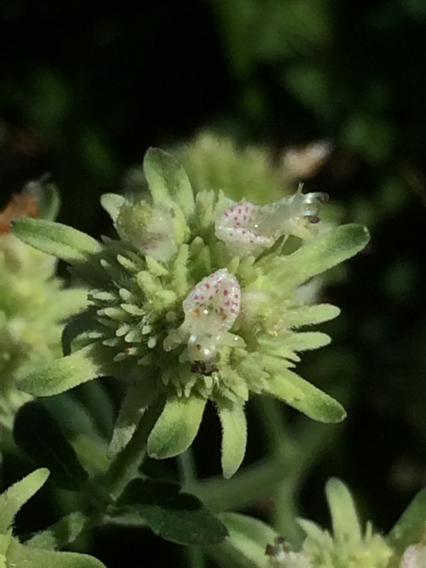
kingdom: Plantae
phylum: Tracheophyta
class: Magnoliopsida
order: Lamiales
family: Lamiaceae
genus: Hyptis
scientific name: Hyptis alata
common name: Cluster bush-mint
